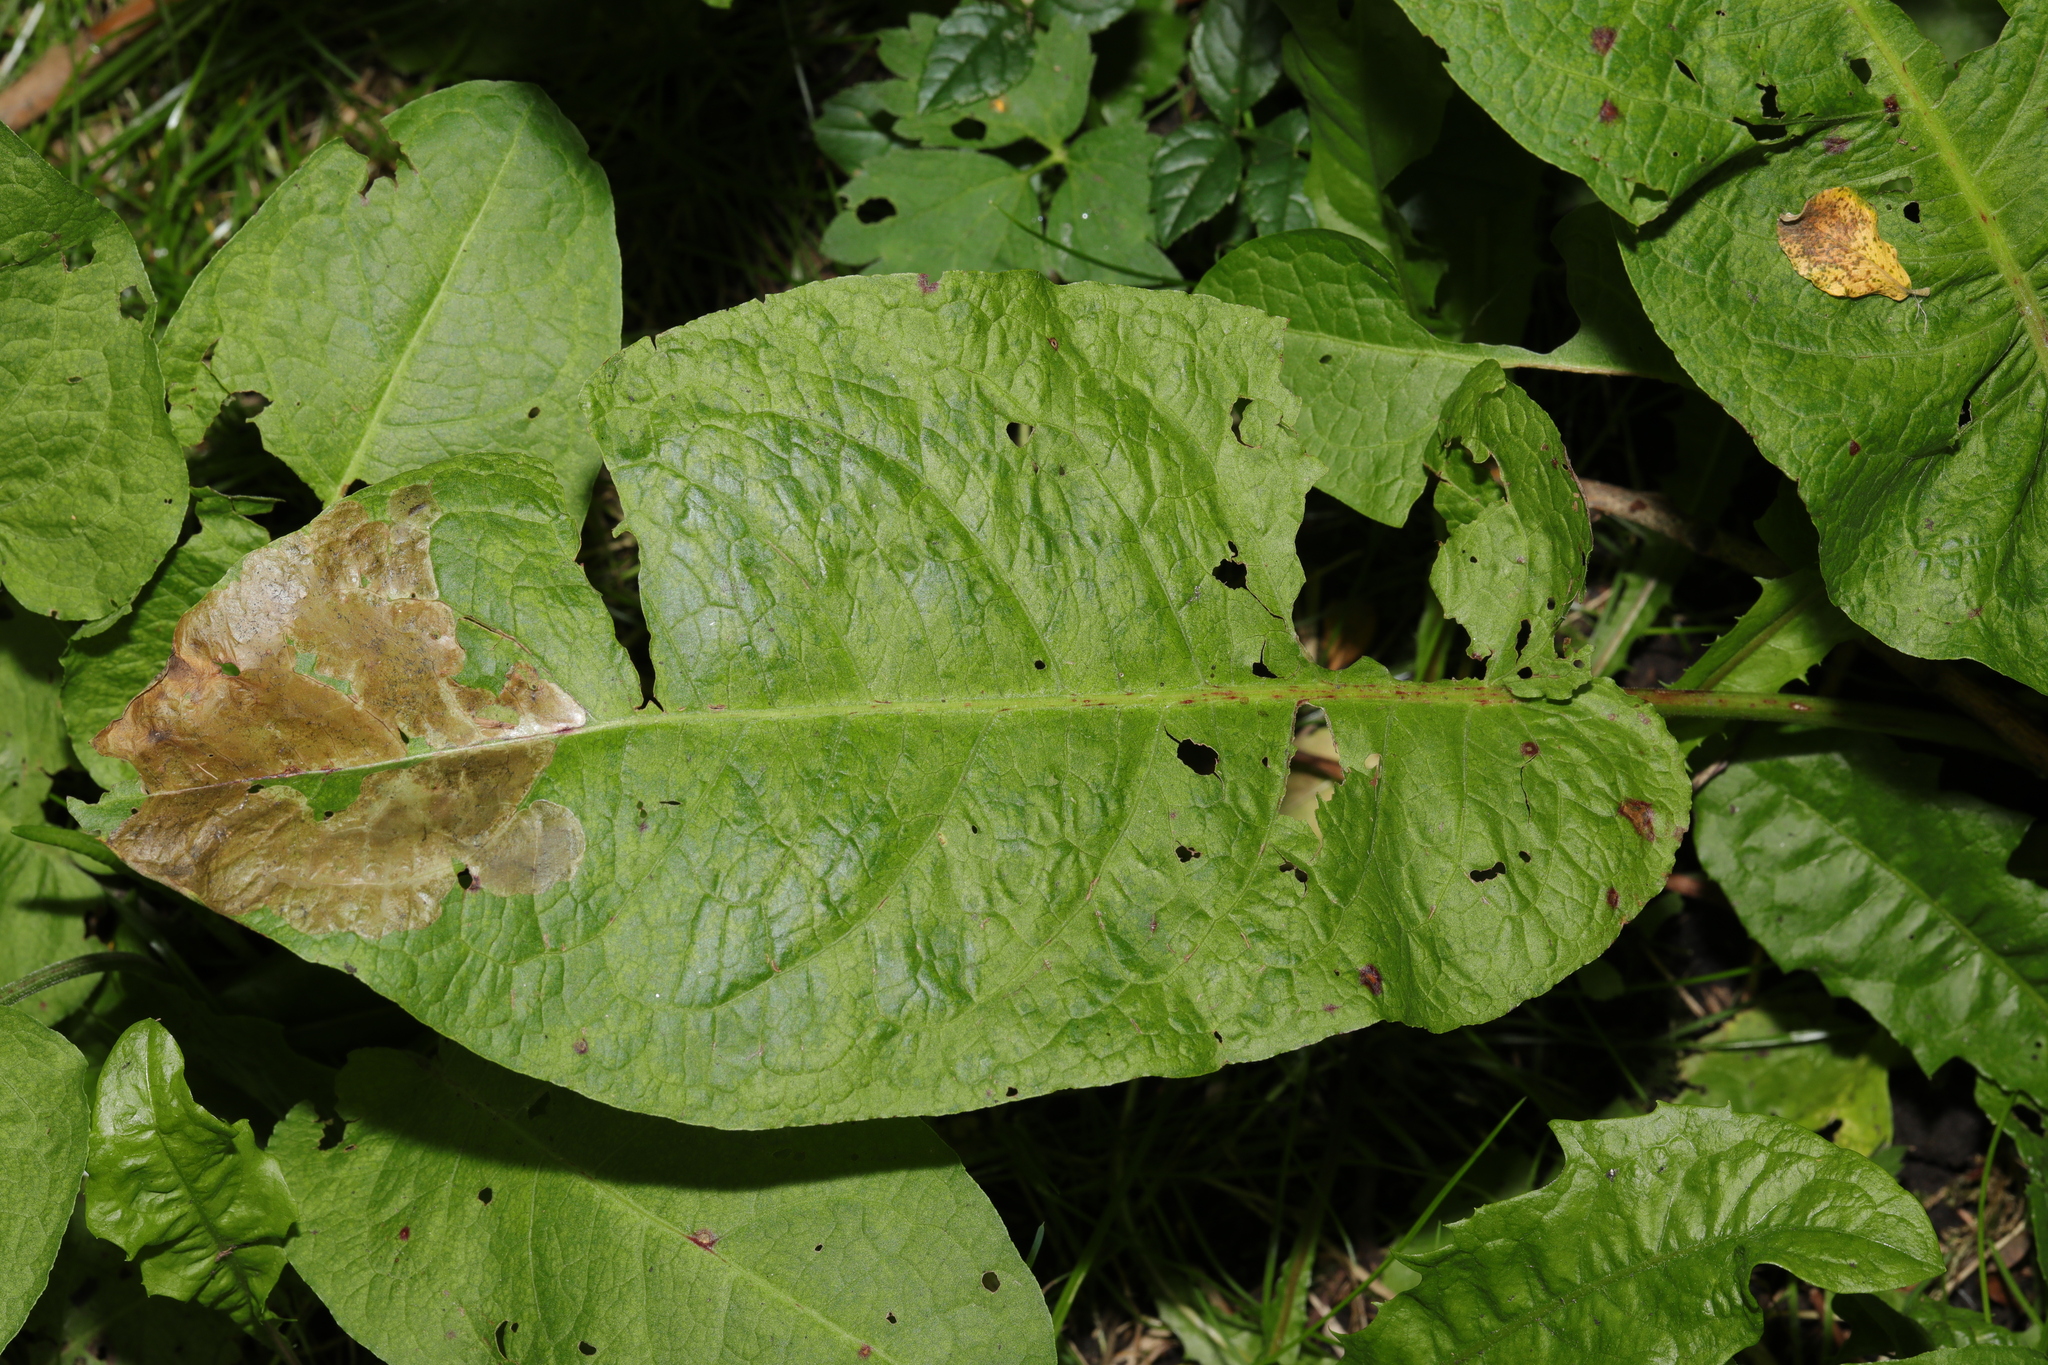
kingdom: Plantae
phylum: Tracheophyta
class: Magnoliopsida
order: Caryophyllales
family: Polygonaceae
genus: Rumex
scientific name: Rumex obtusifolius
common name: Bitter dock
